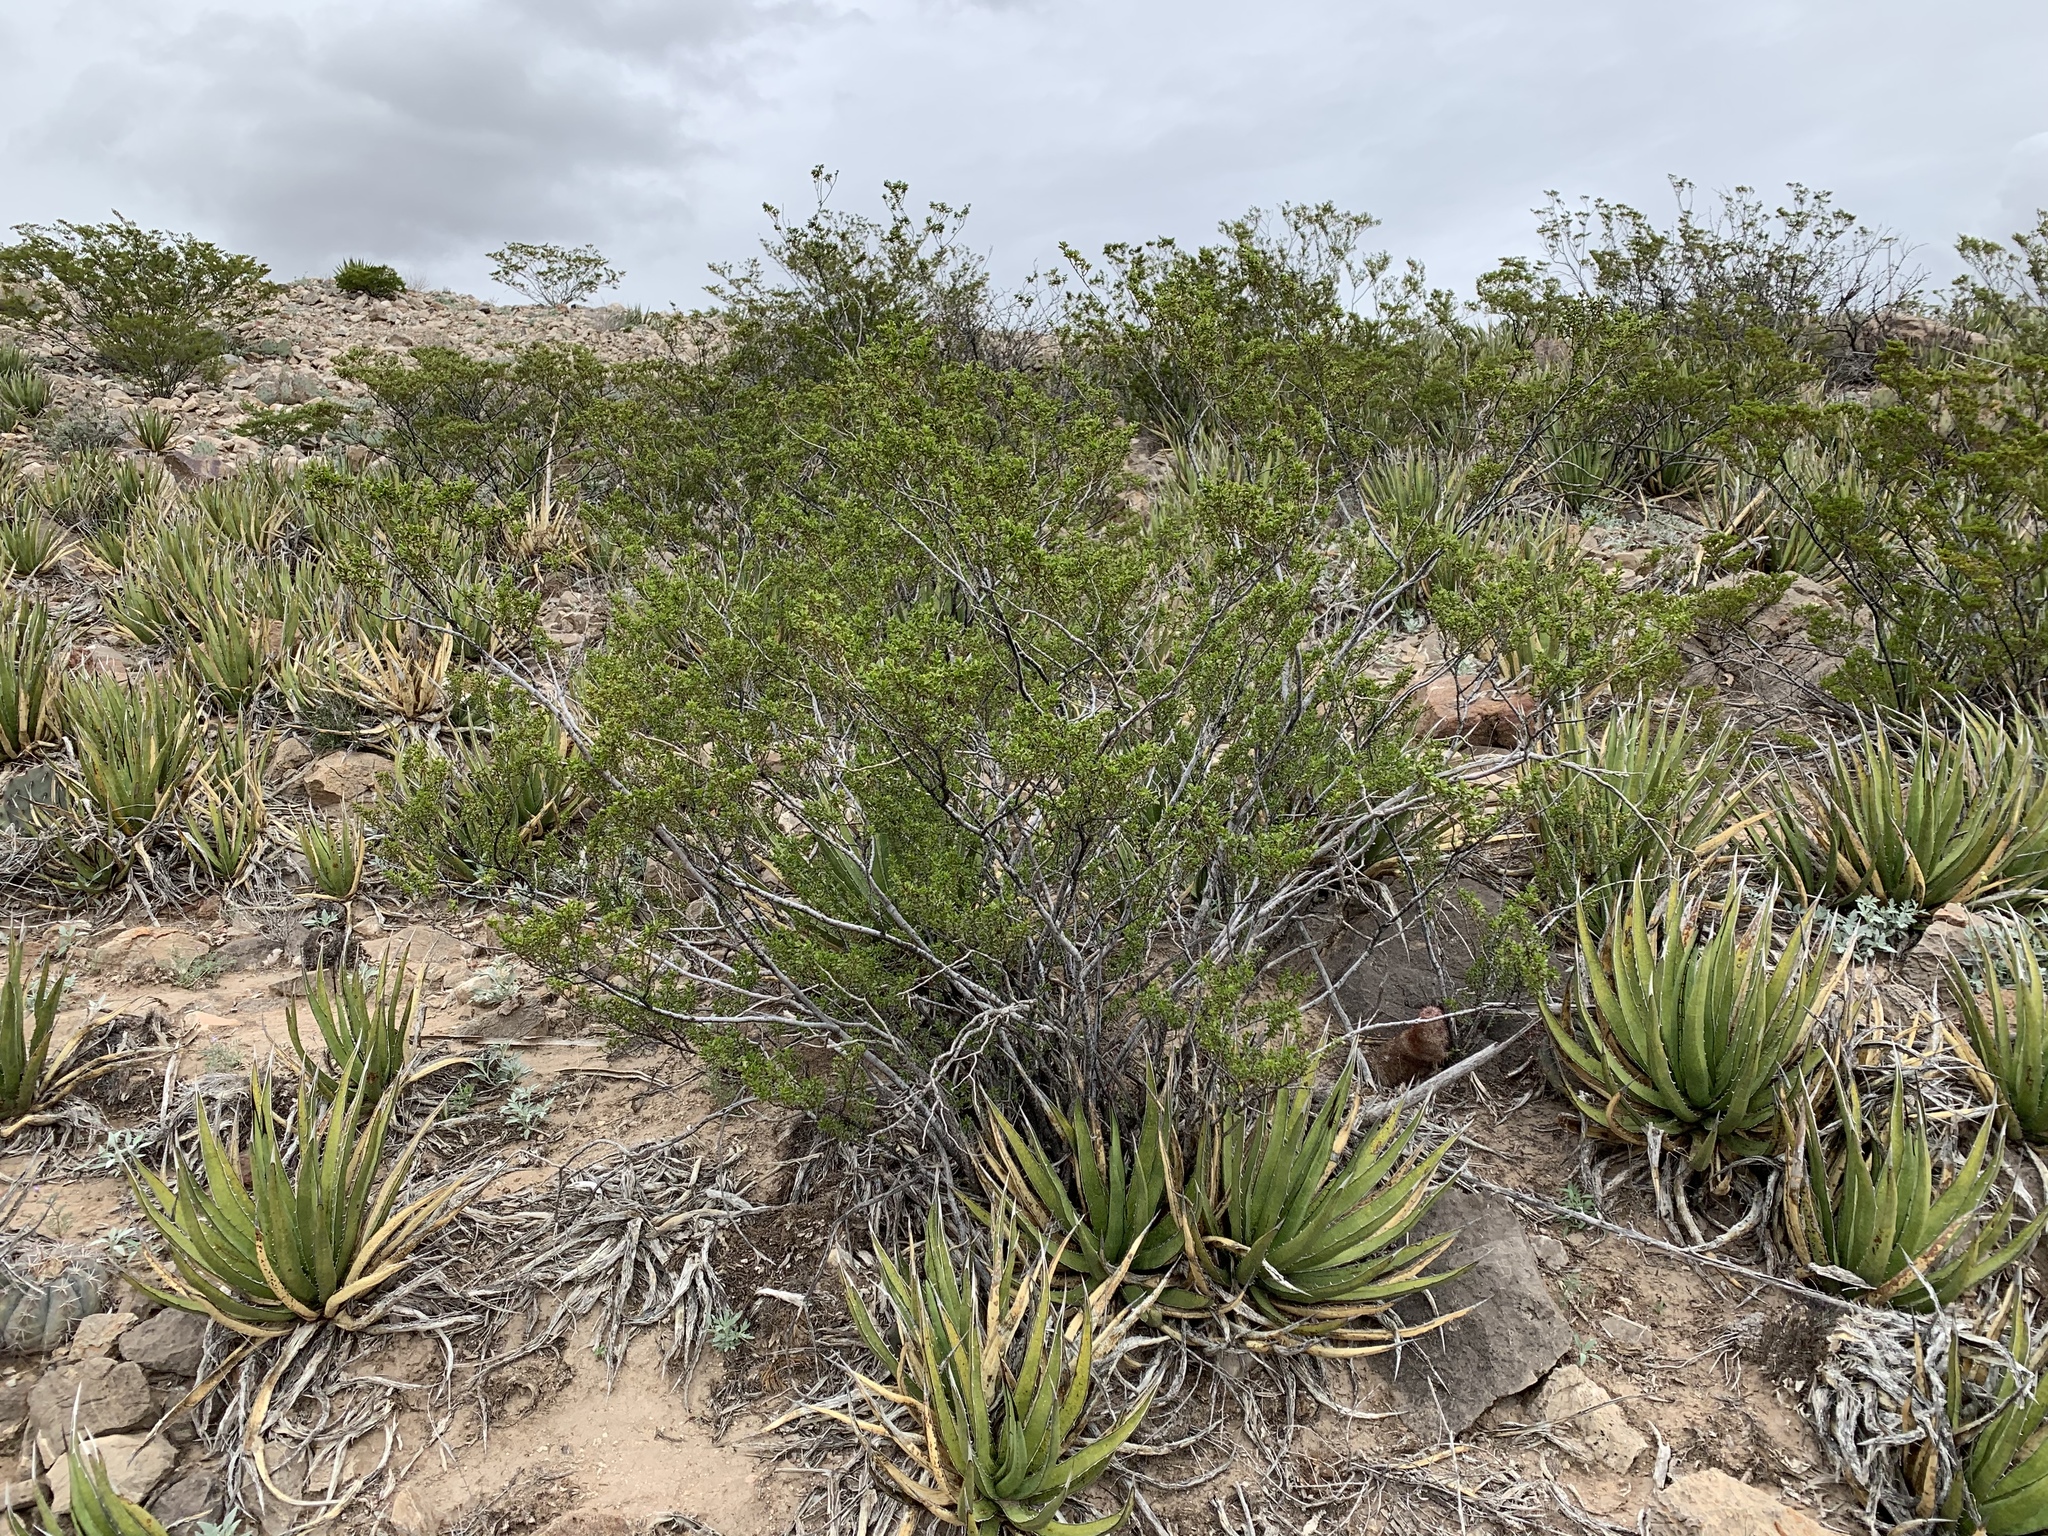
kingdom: Plantae
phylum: Tracheophyta
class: Magnoliopsida
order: Zygophyllales
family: Zygophyllaceae
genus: Larrea
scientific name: Larrea tridentata
